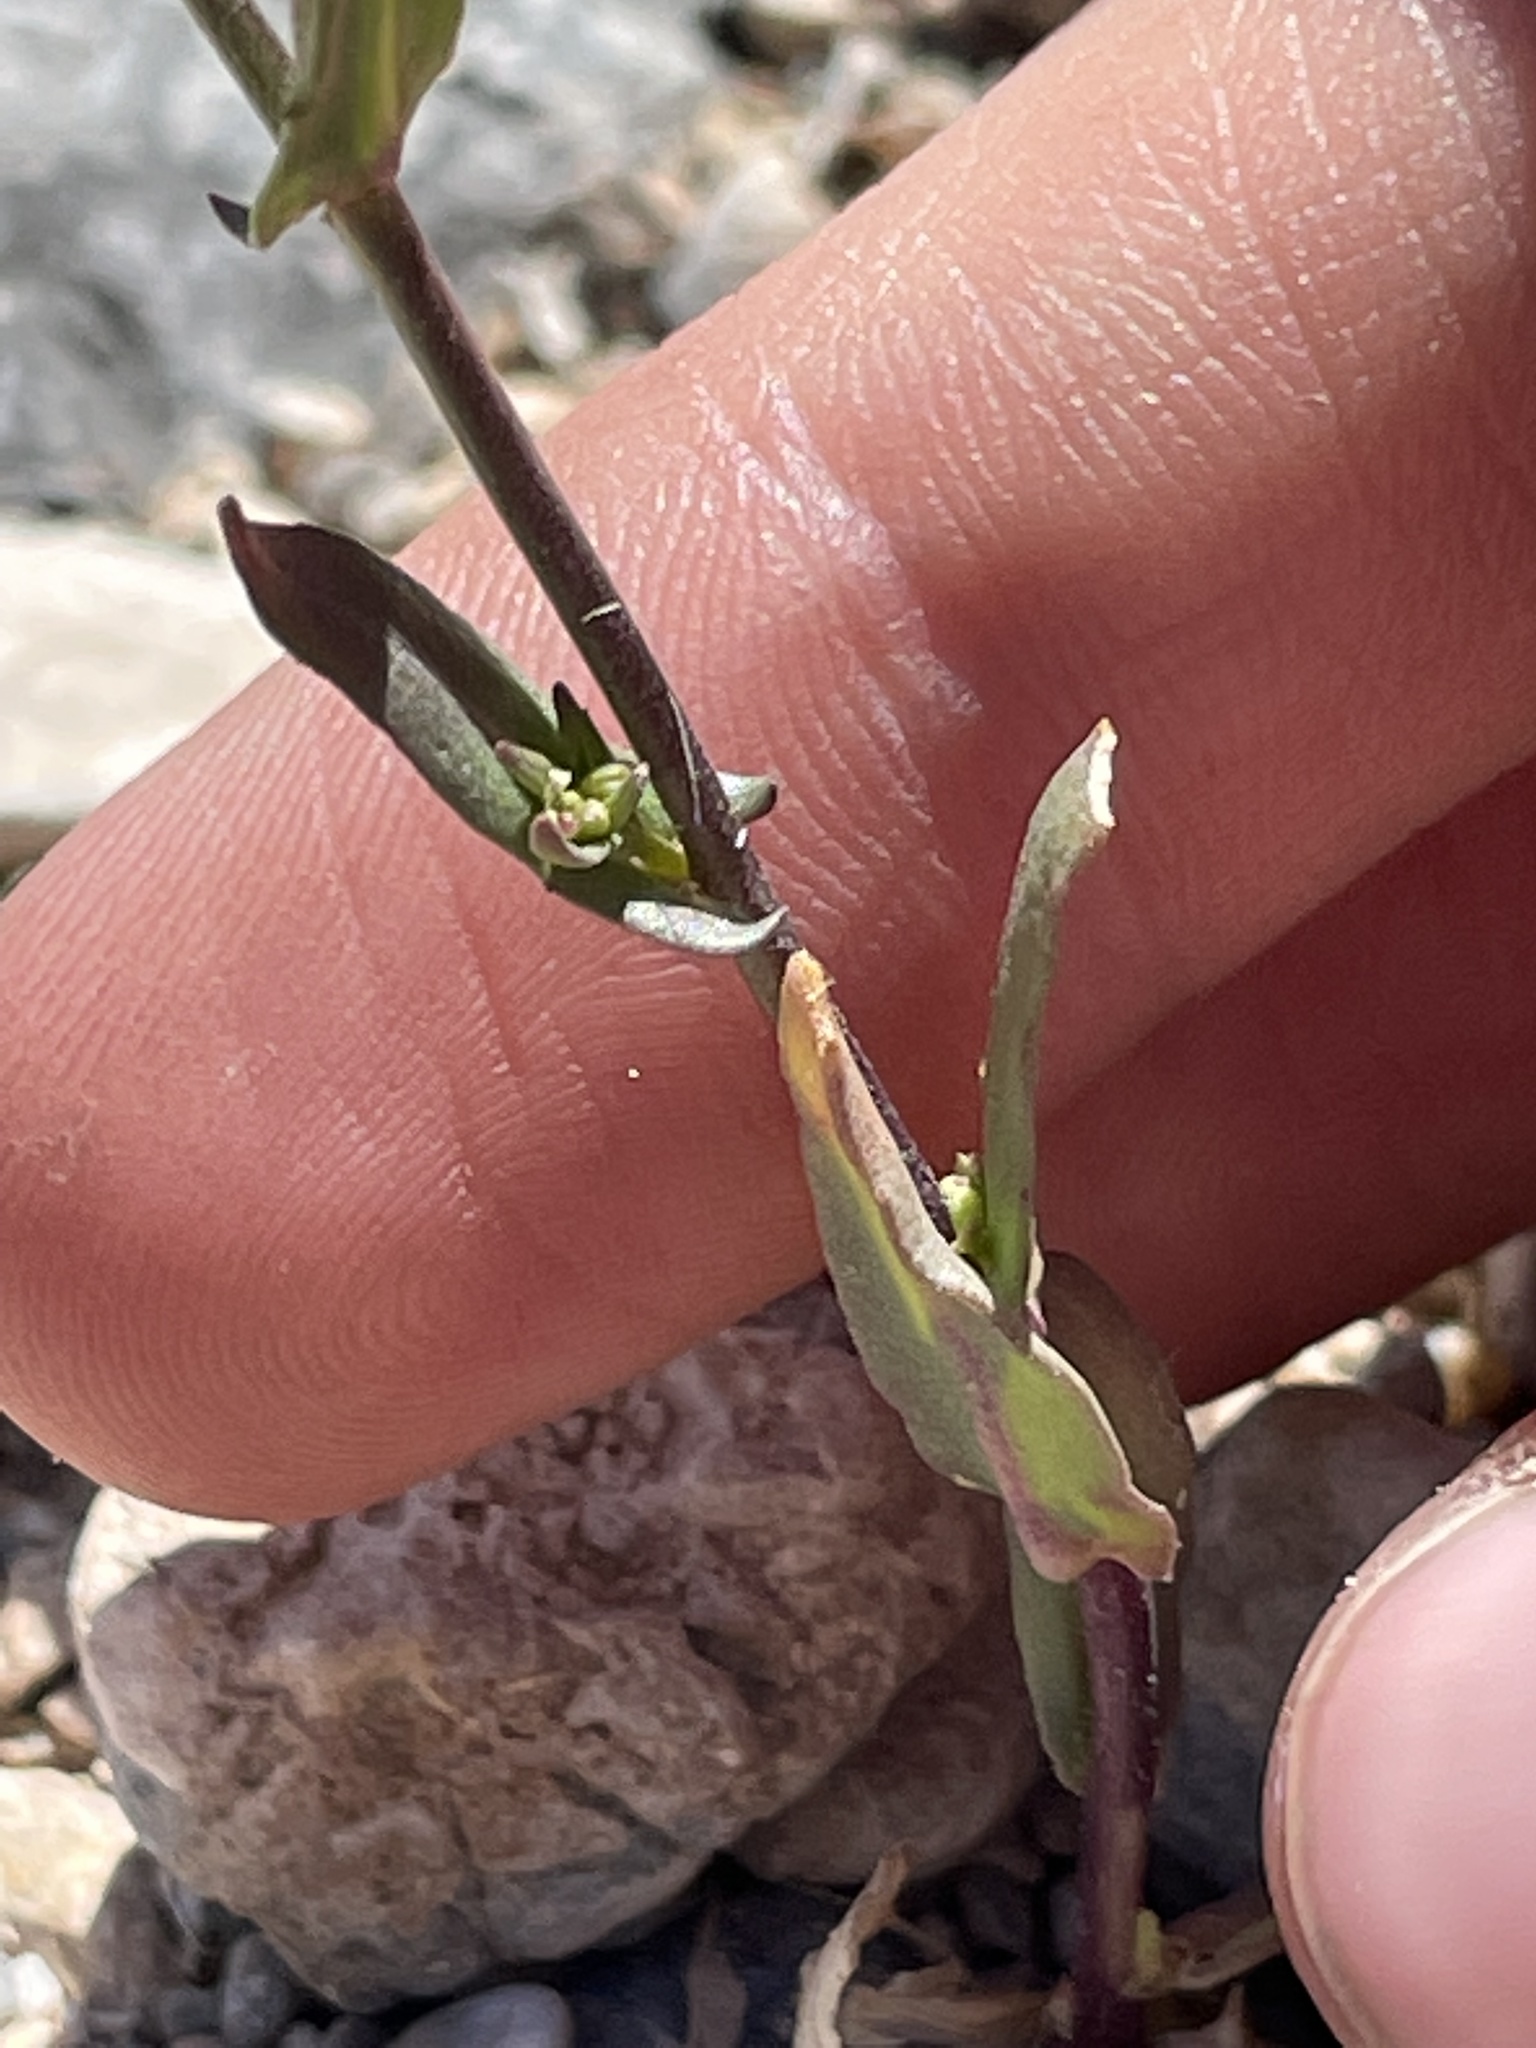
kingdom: Plantae
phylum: Tracheophyta
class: Magnoliopsida
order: Brassicales
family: Brassicaceae
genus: Streptanthus
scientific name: Streptanthus cooperi
